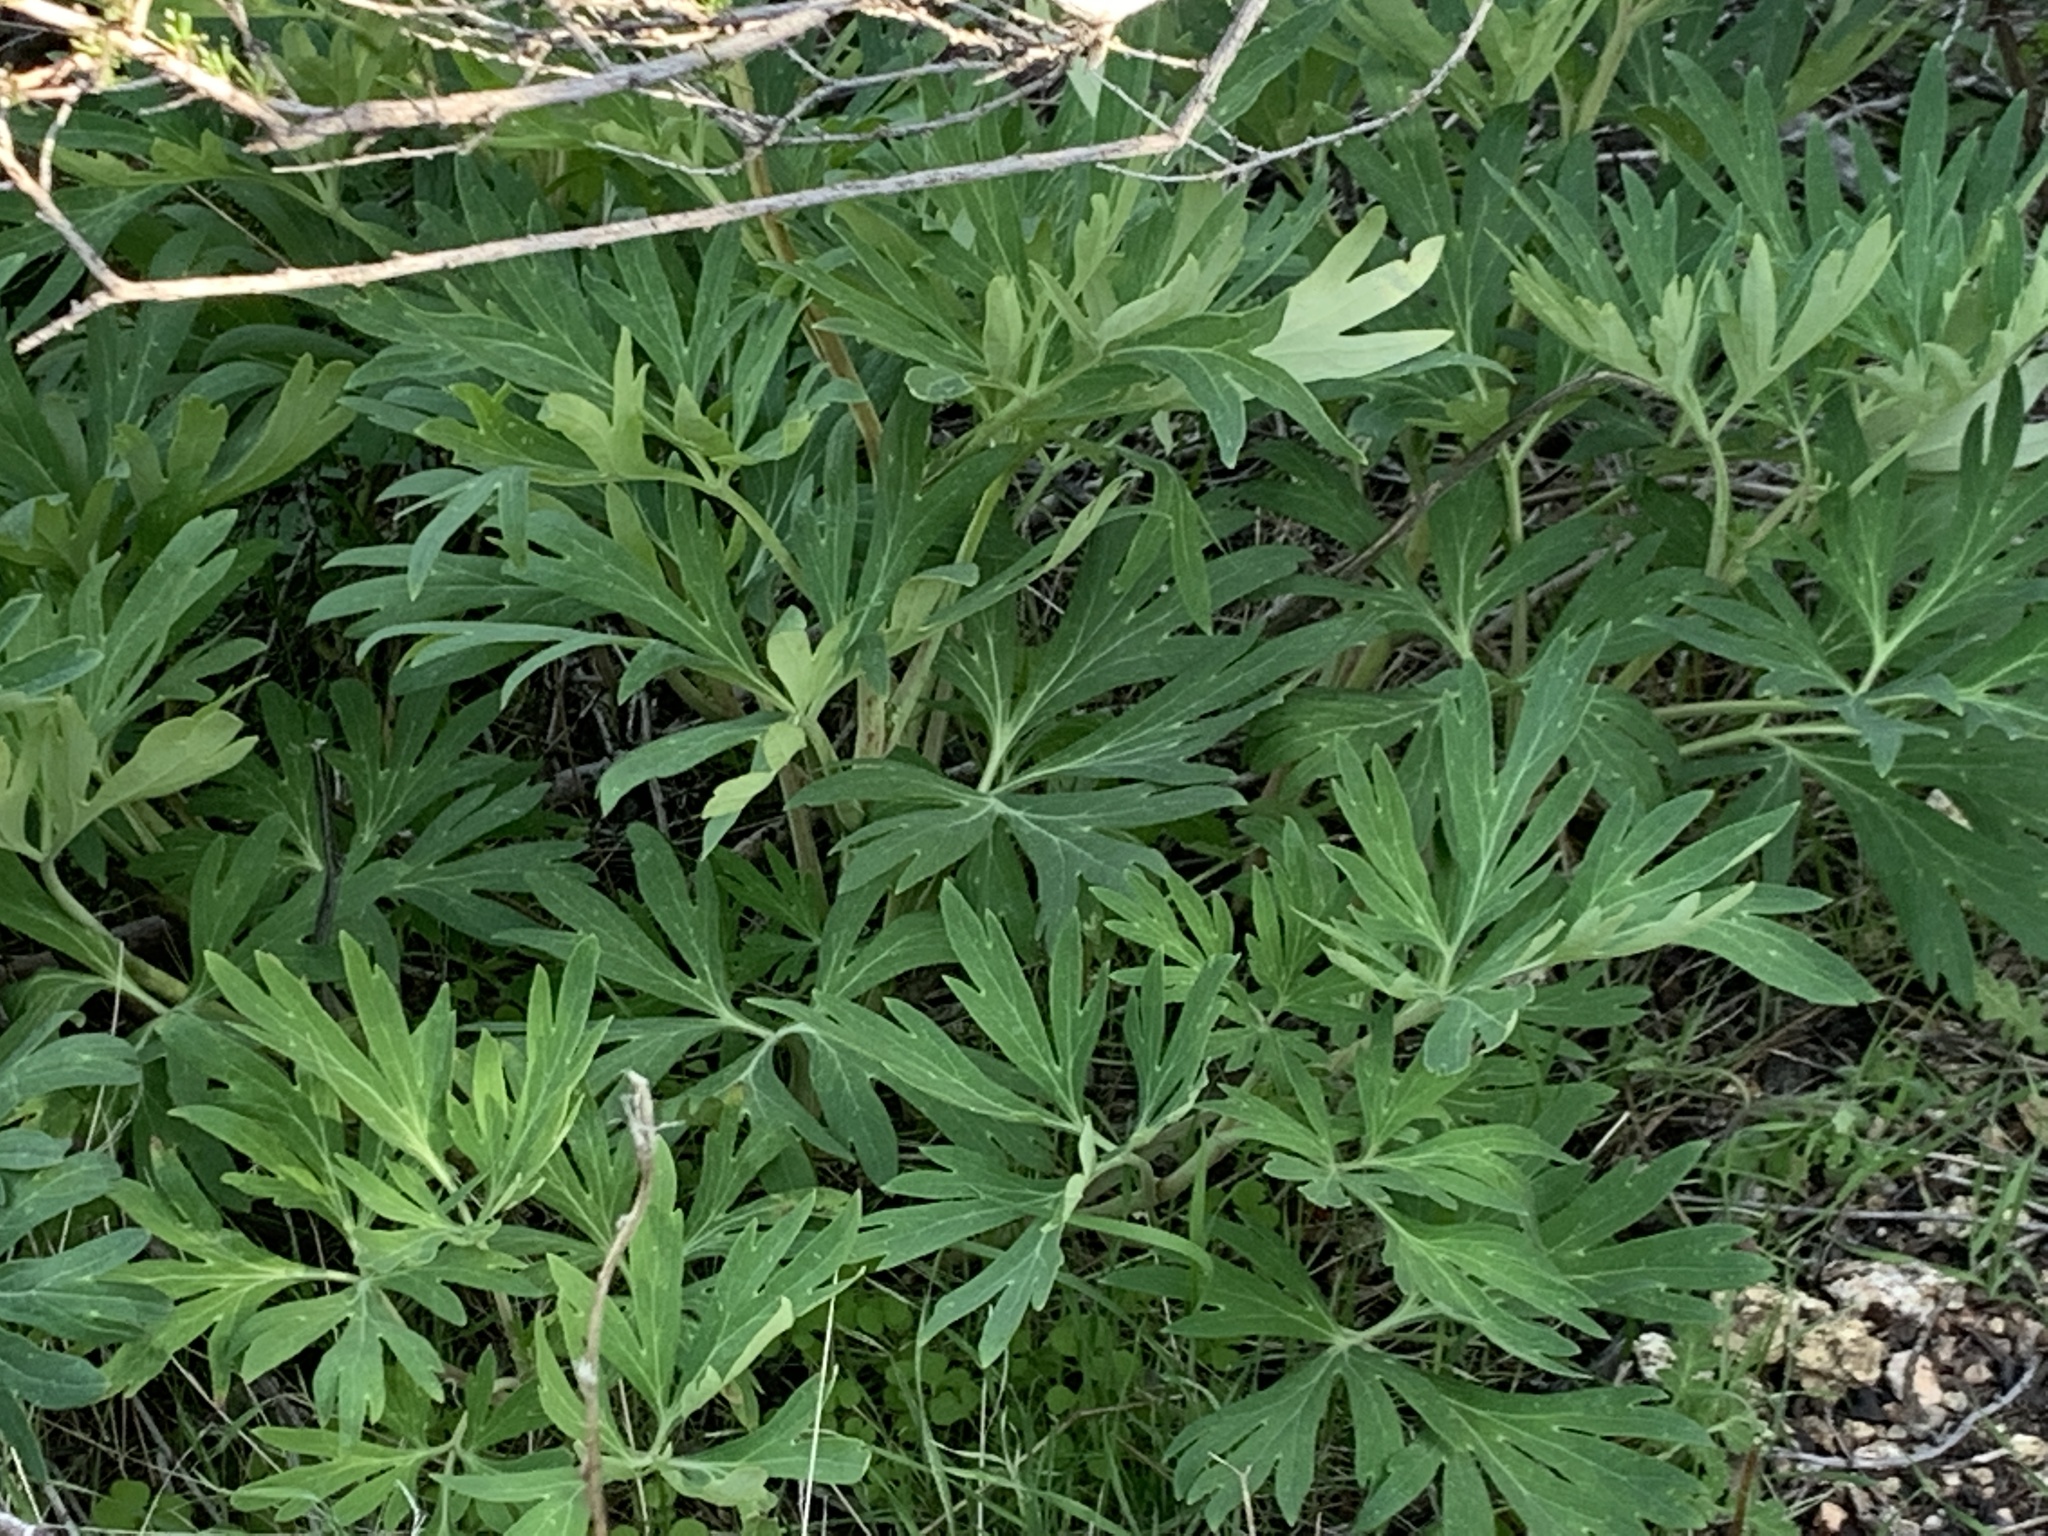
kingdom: Plantae
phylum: Tracheophyta
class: Magnoliopsida
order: Saxifragales
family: Paeoniaceae
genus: Paeonia
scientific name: Paeonia californica
